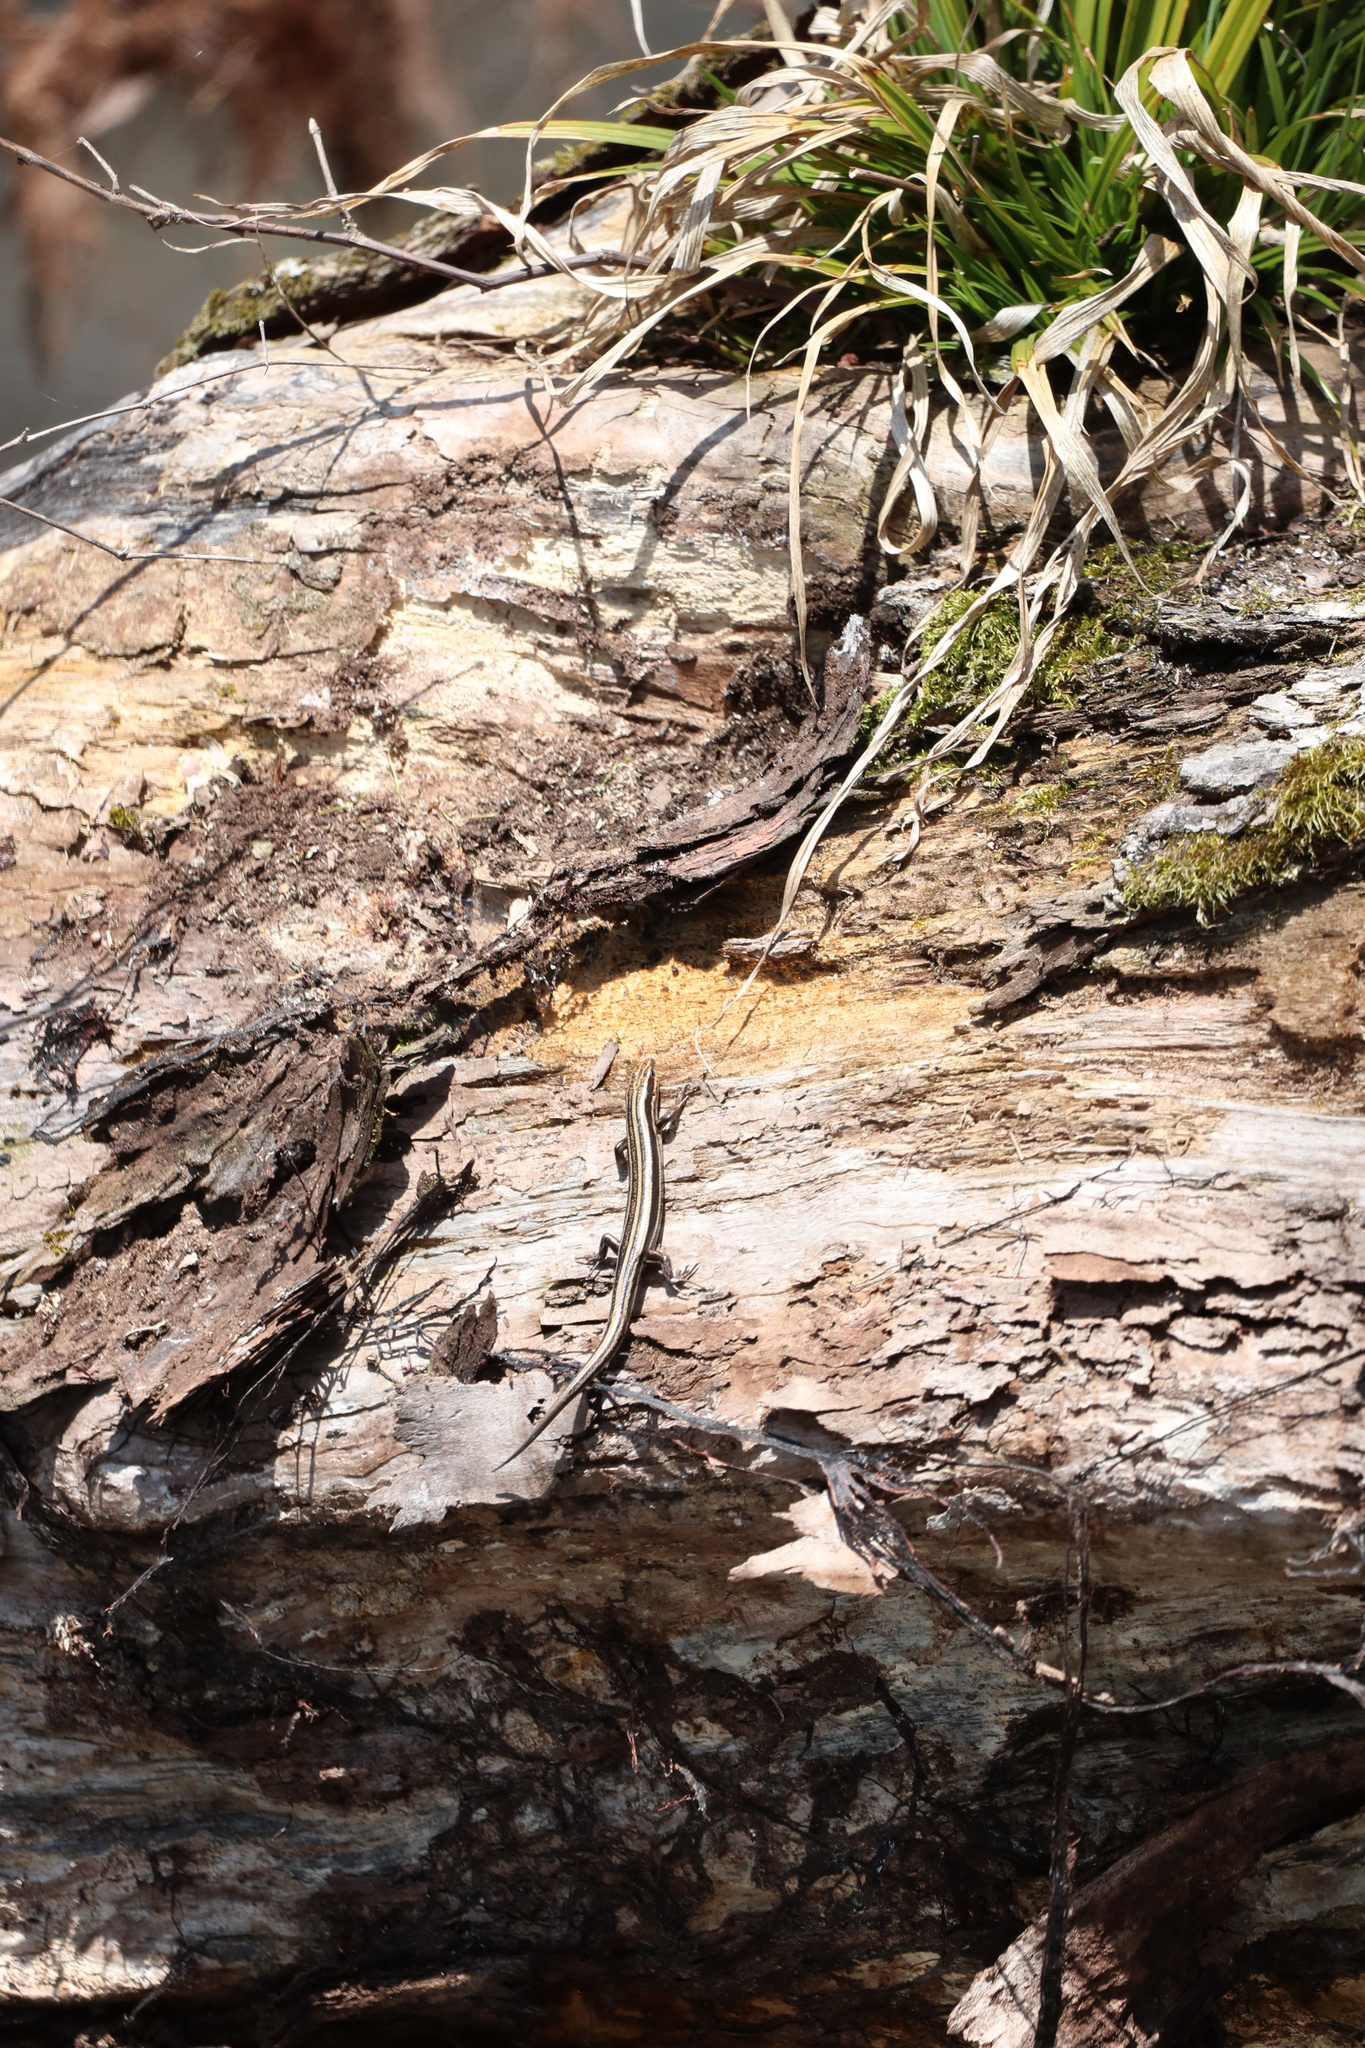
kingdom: Animalia
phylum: Chordata
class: Squamata
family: Scincidae
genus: Plestiodon
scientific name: Plestiodon fasciatus
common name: Five-lined skink
